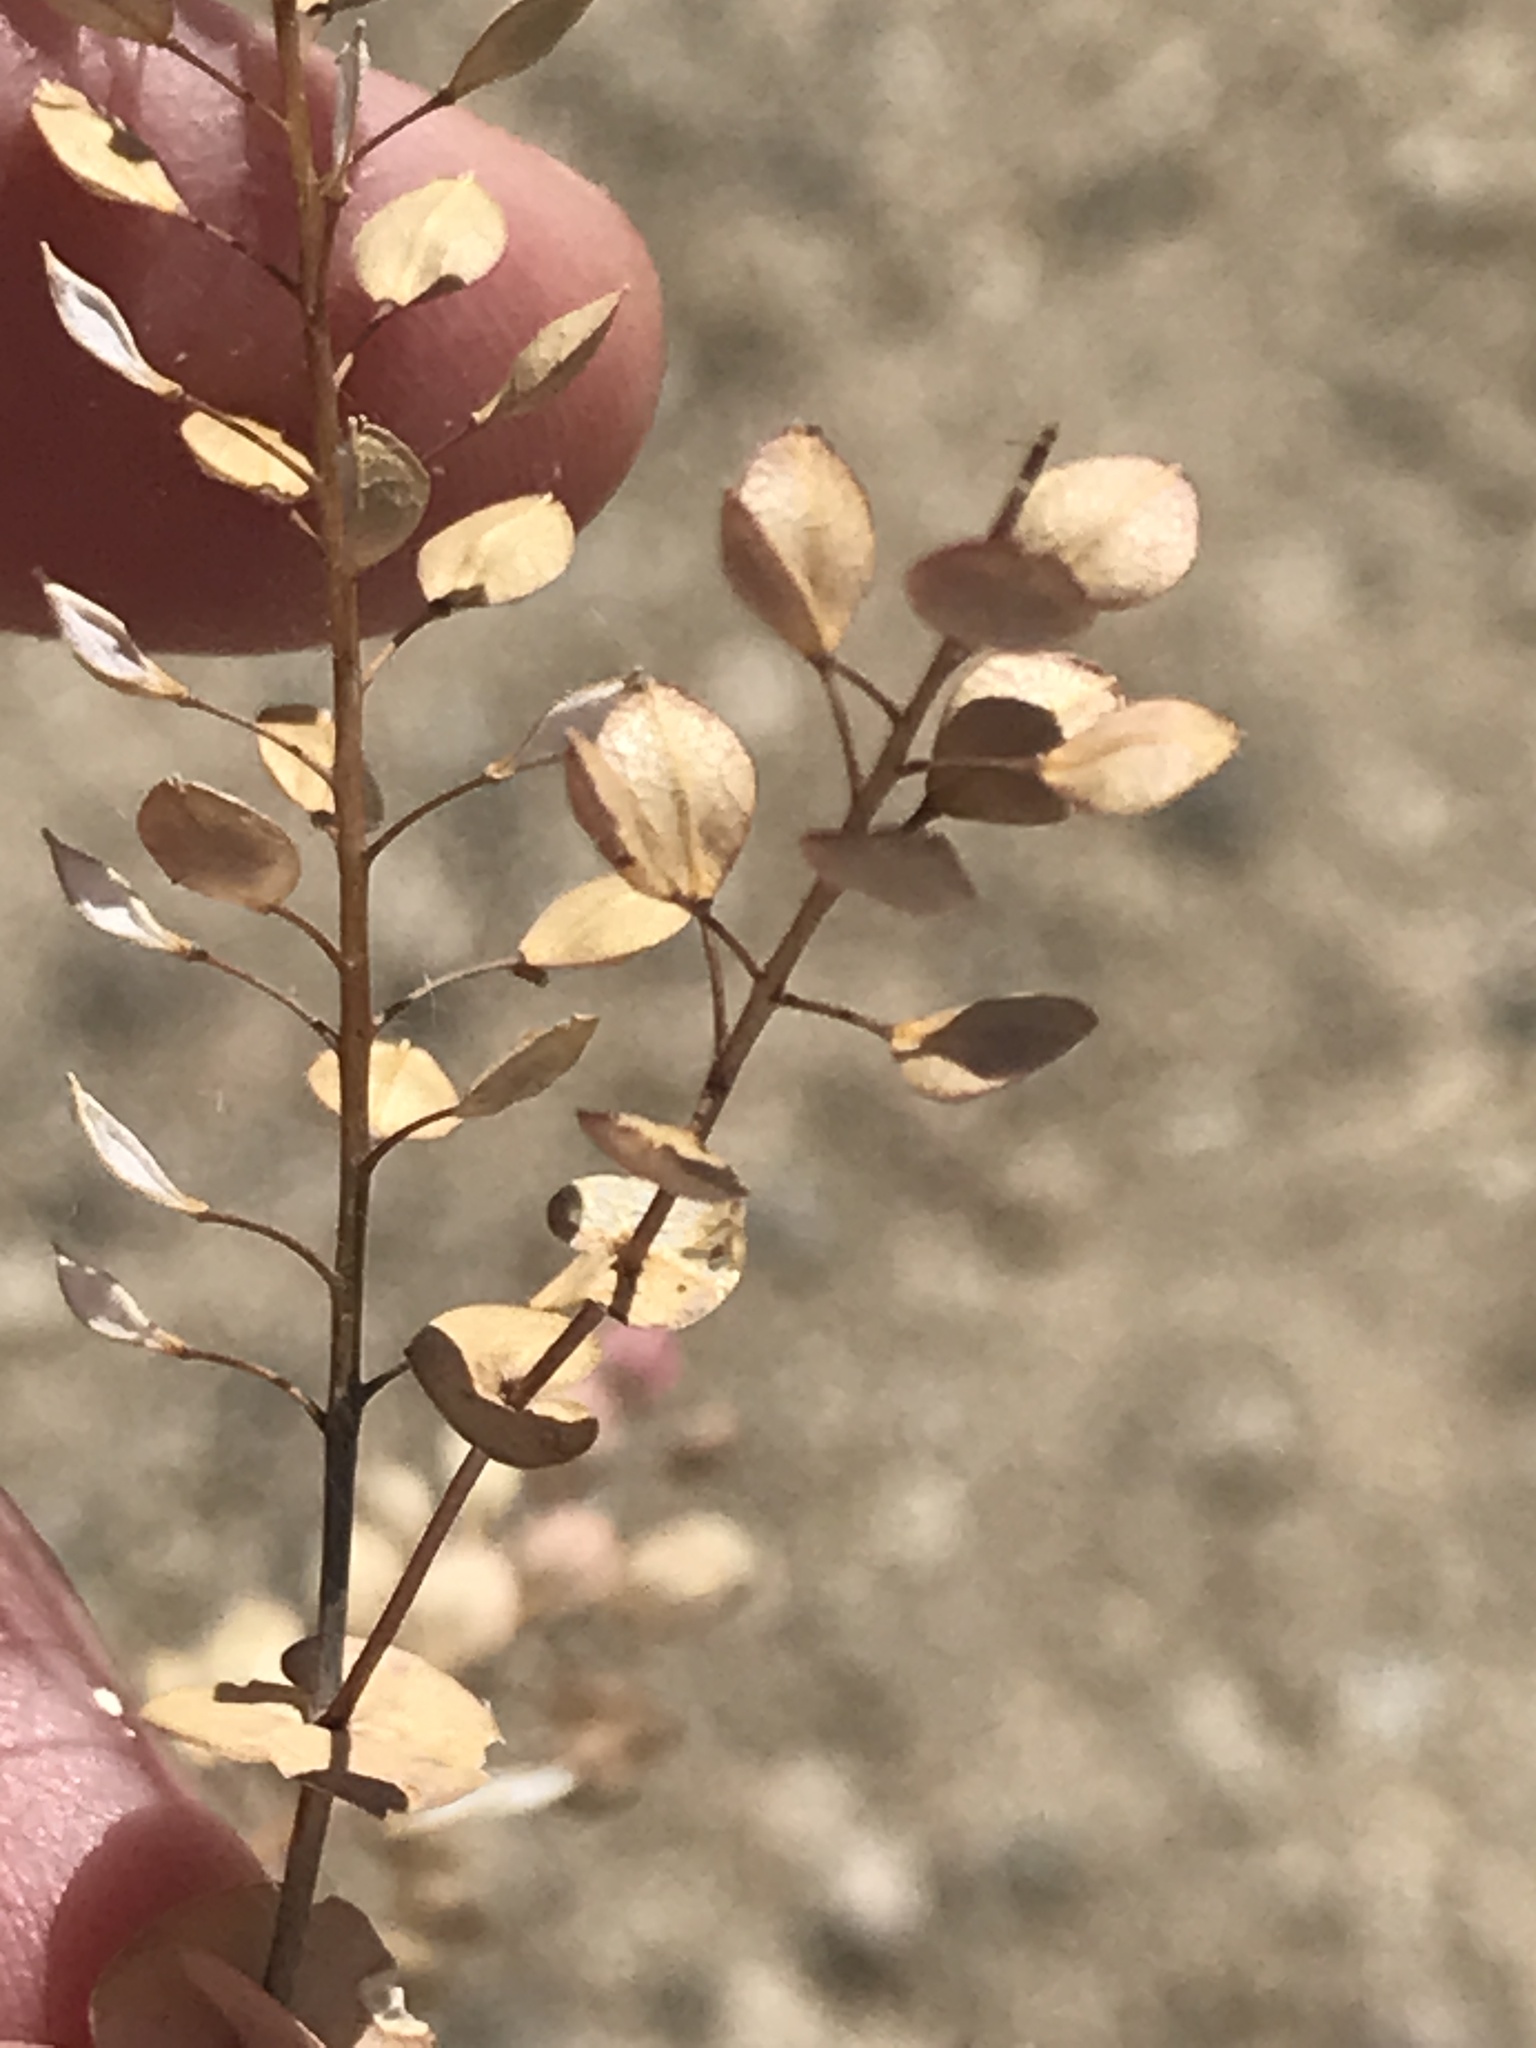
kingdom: Plantae
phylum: Tracheophyta
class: Magnoliopsida
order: Brassicales
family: Brassicaceae
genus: Lepidium
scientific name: Lepidium perfoliatum
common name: Perfoliate pepperwort
